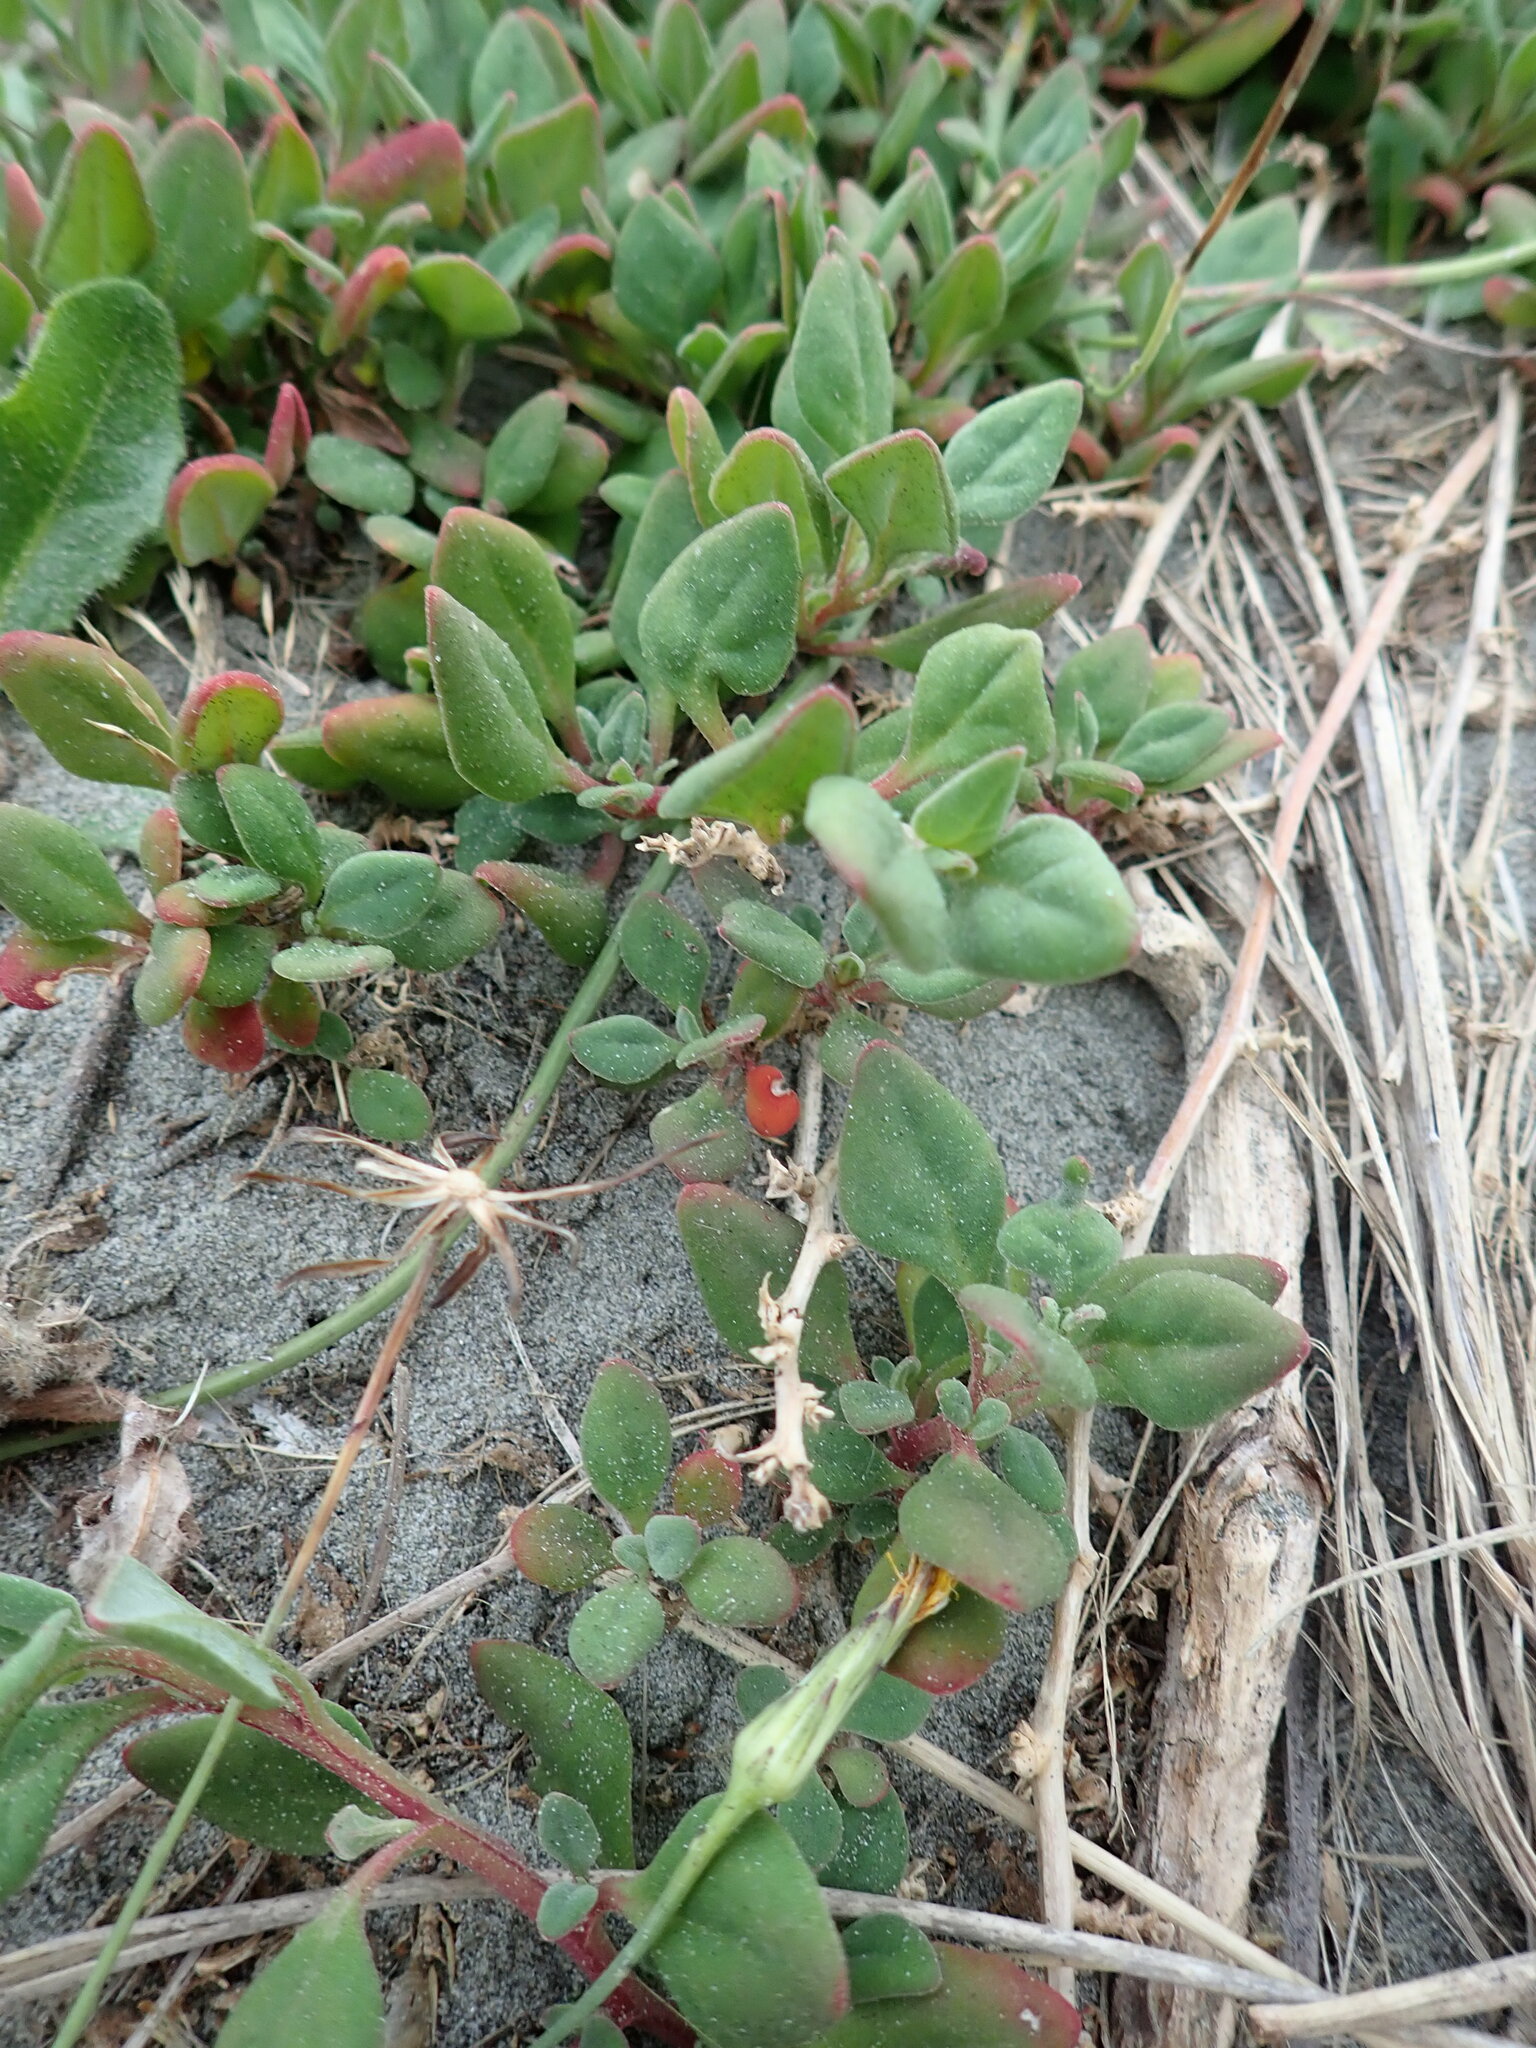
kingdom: Plantae
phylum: Tracheophyta
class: Magnoliopsida
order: Caryophyllales
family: Aizoaceae
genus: Tetragonia
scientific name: Tetragonia implexicoma
